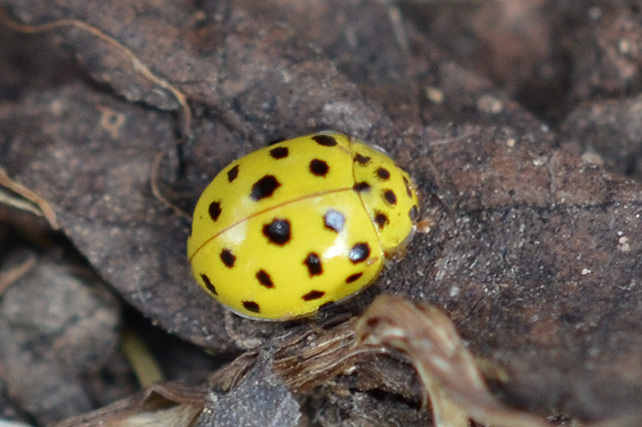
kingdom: Animalia
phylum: Arthropoda
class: Insecta
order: Coleoptera
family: Coccinellidae
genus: Psyllobora
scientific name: Psyllobora vigintiduopunctata
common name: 22-spot ladybird
